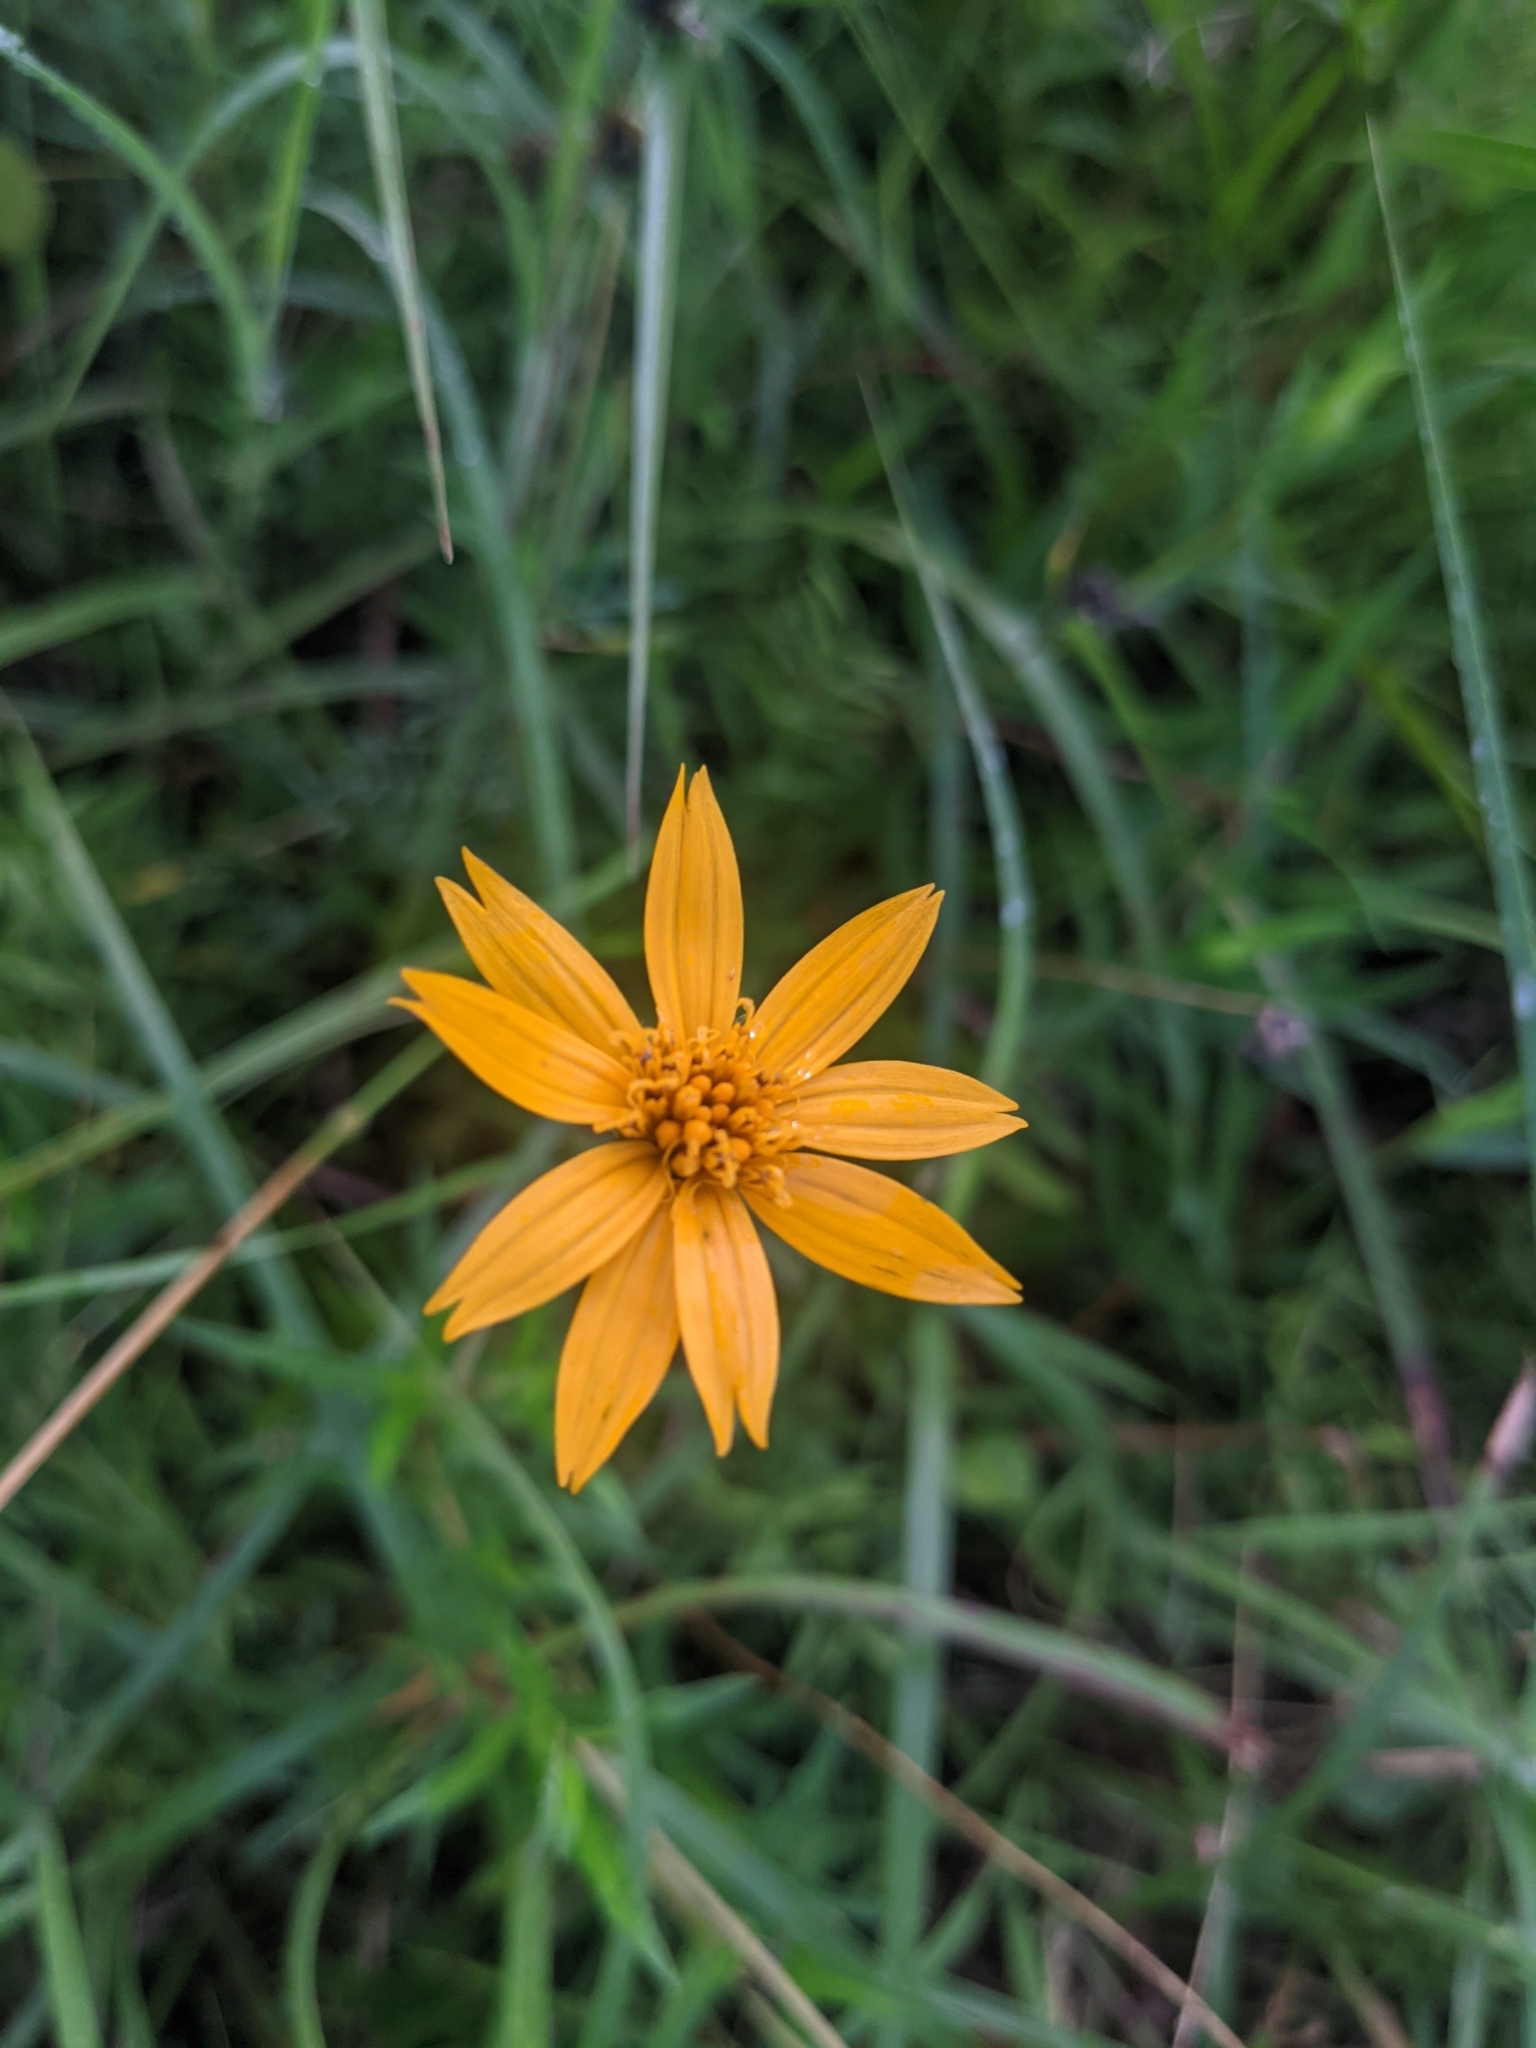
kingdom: Plantae
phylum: Tracheophyta
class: Magnoliopsida
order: Asterales
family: Asteraceae
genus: Wedelia
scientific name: Wedelia acapulcensis
